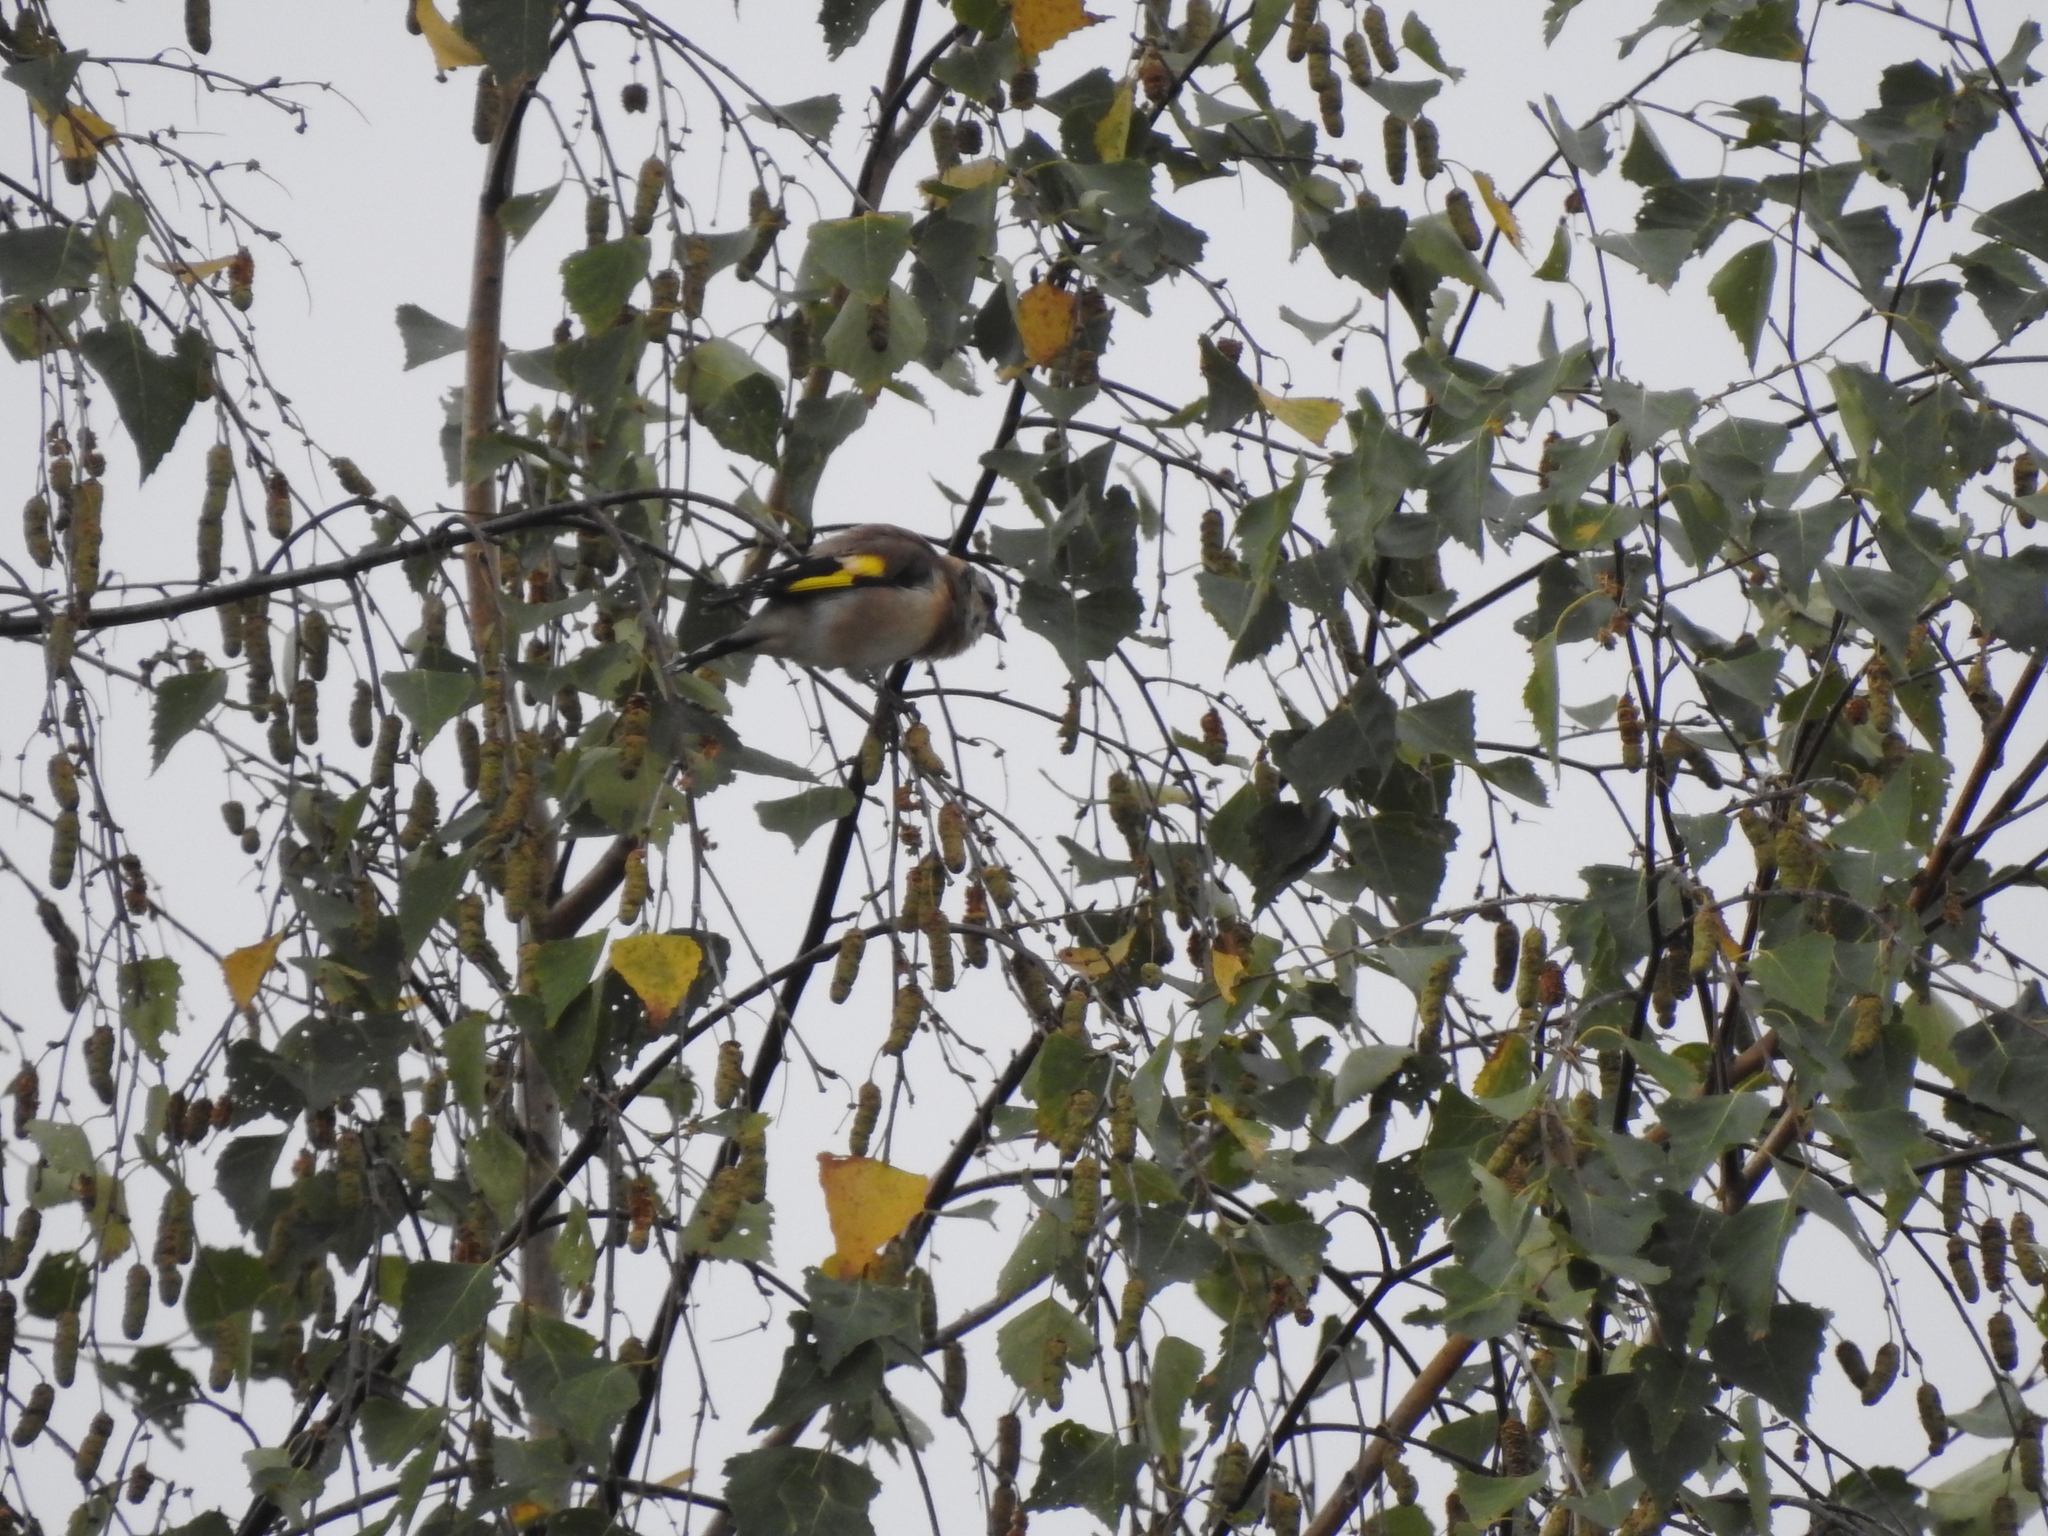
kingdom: Animalia
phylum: Chordata
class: Aves
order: Passeriformes
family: Fringillidae
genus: Carduelis
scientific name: Carduelis carduelis
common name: European goldfinch
